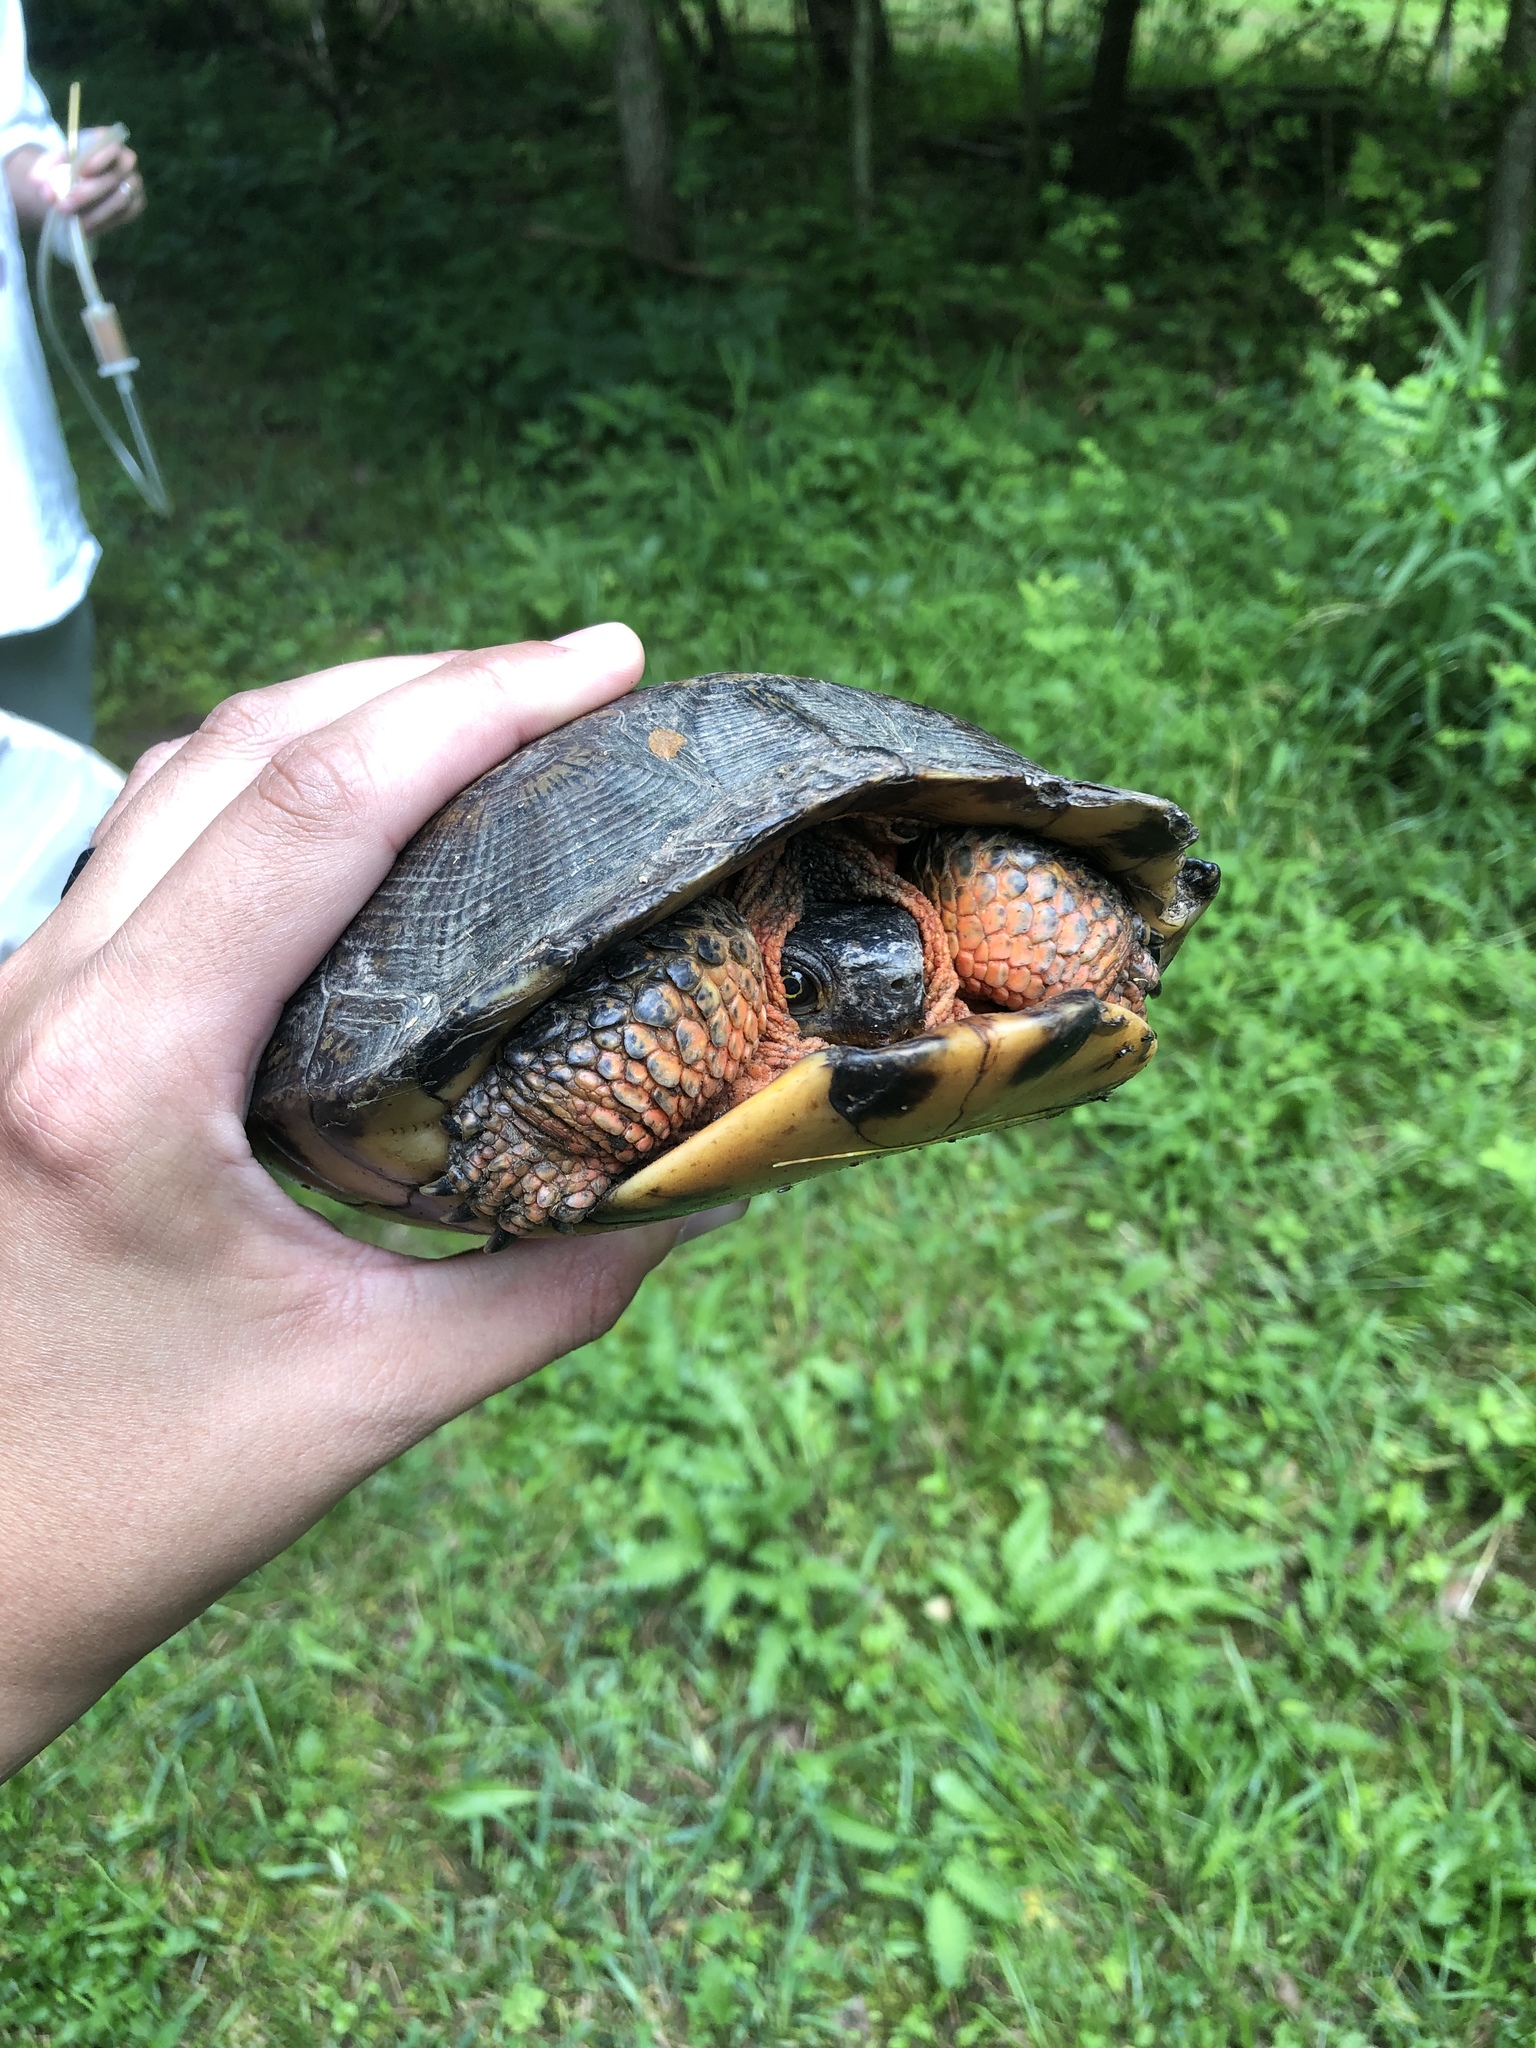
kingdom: Animalia
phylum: Chordata
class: Testudines
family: Emydidae
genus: Glyptemys
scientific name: Glyptemys insculpta
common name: Wood turtle
